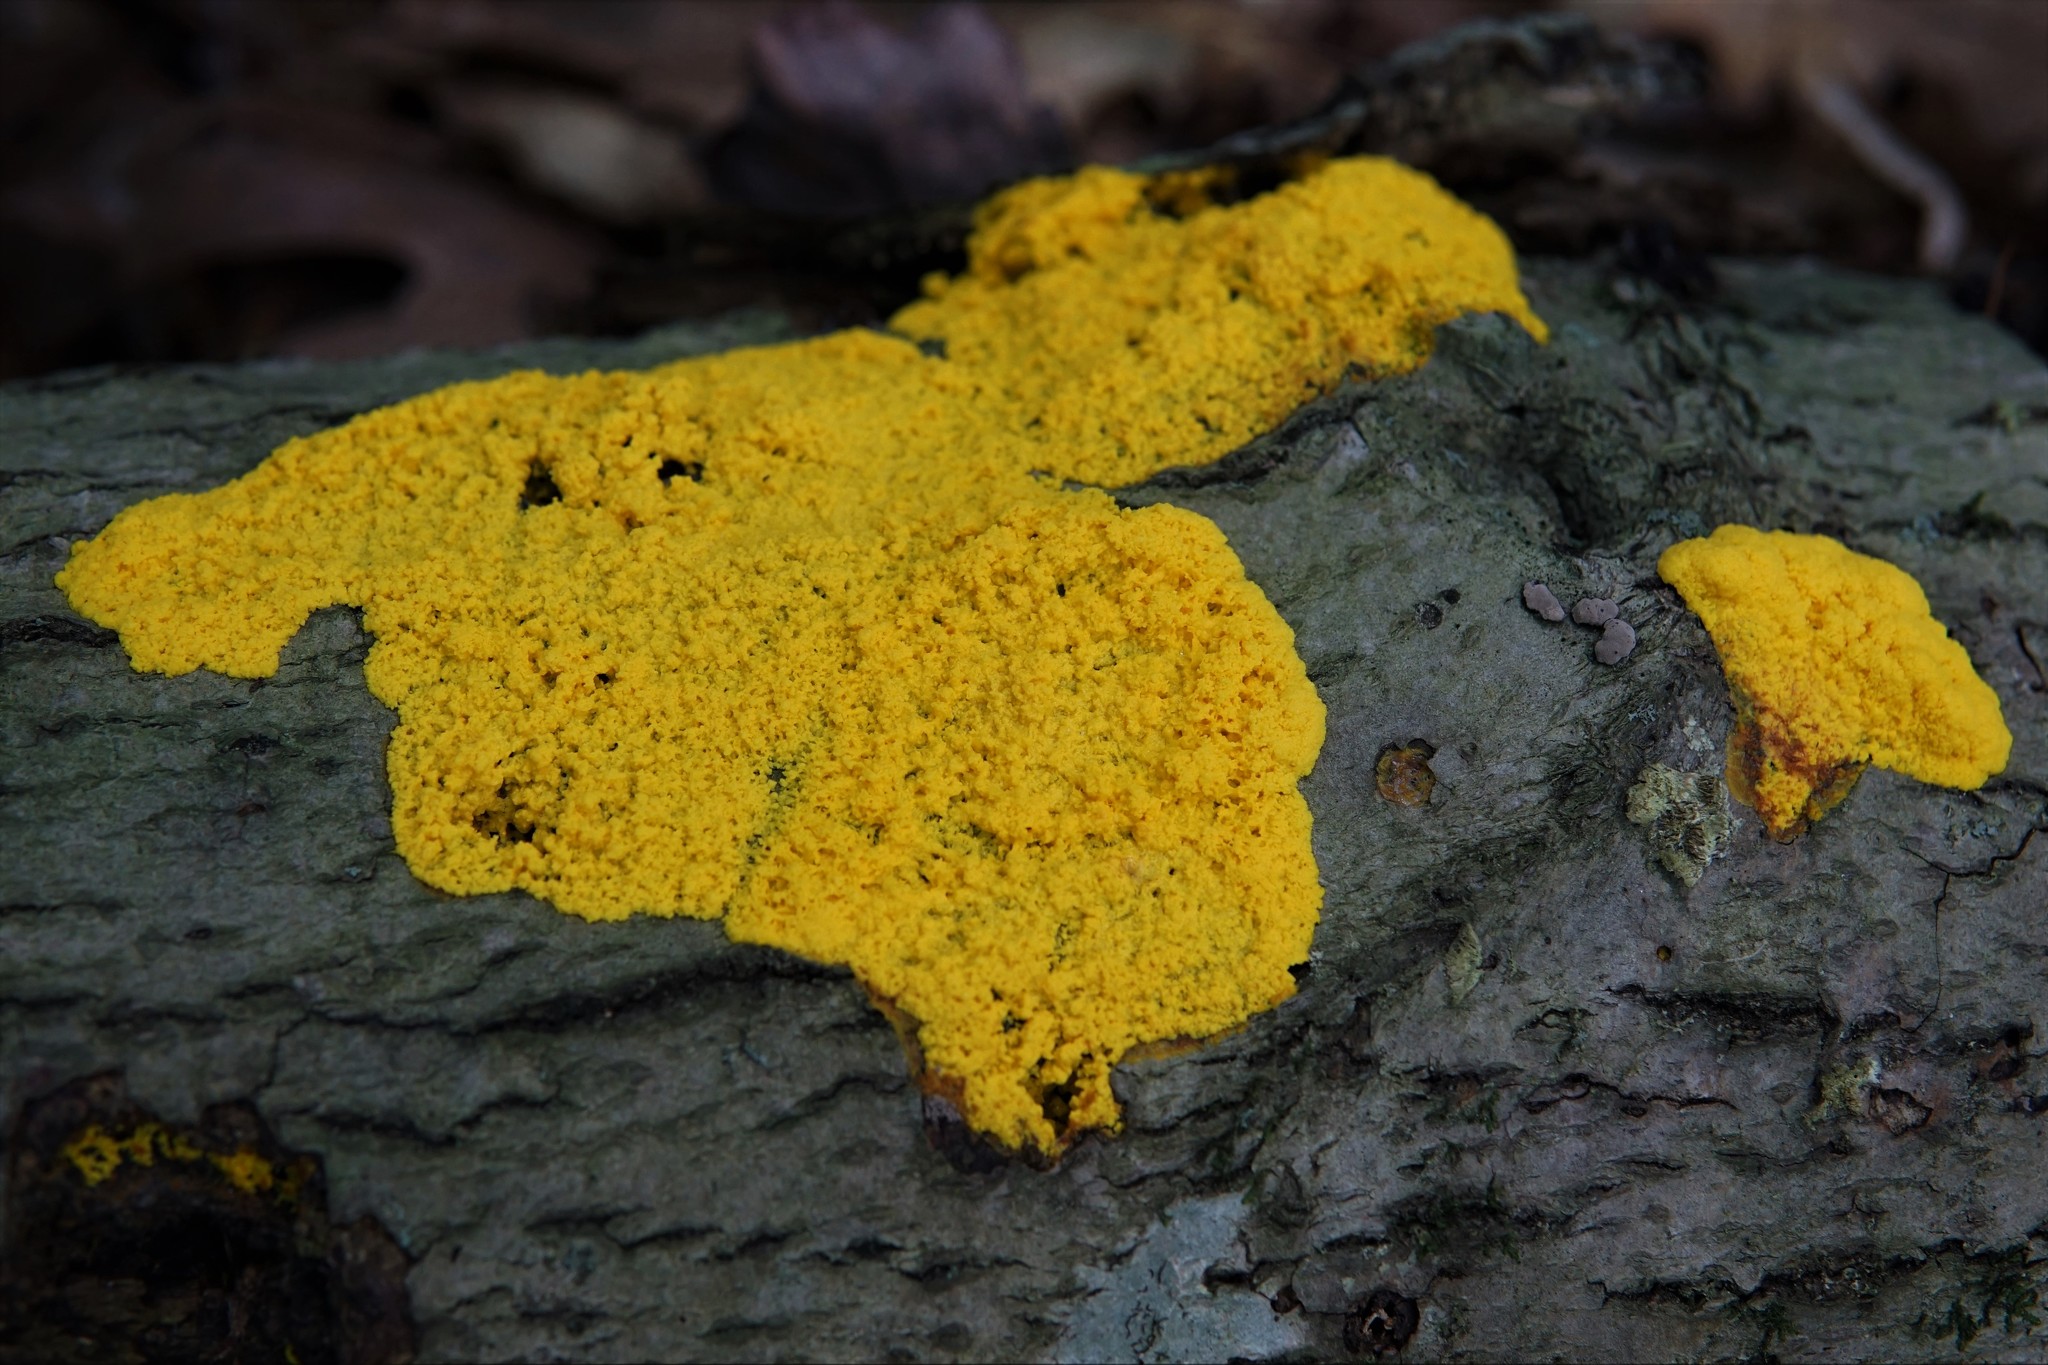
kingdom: Protozoa
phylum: Mycetozoa
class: Myxomycetes
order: Physarales
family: Physaraceae
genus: Fuligo
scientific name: Fuligo septica
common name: Dog vomit slime mold
